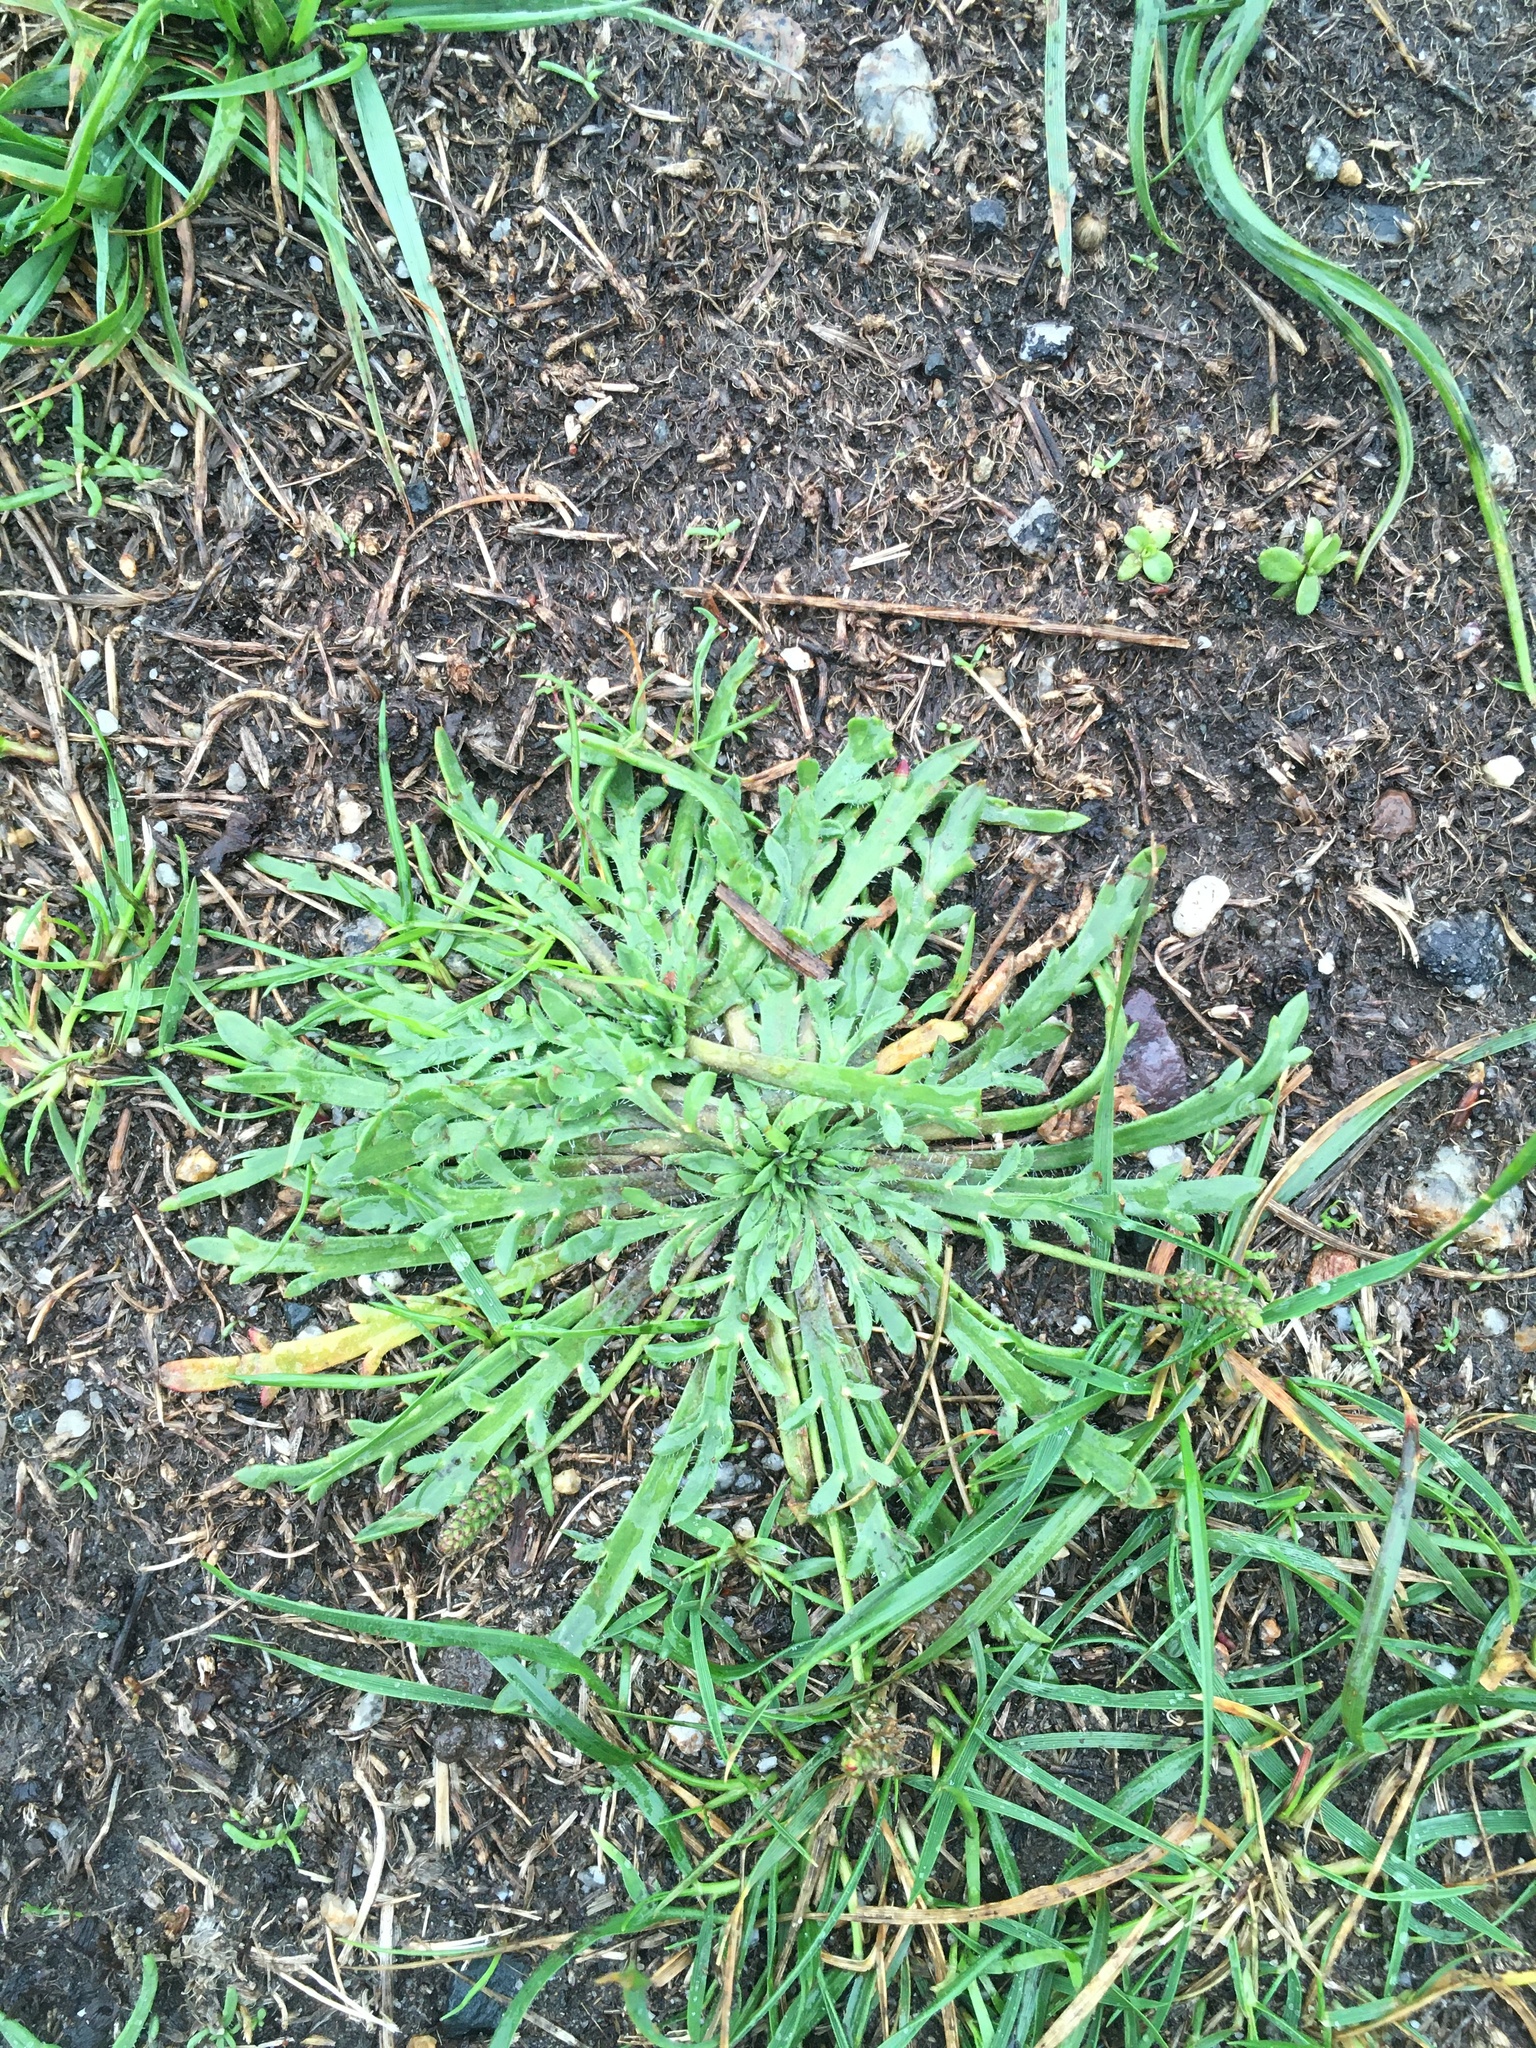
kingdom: Plantae
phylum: Tracheophyta
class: Magnoliopsida
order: Lamiales
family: Plantaginaceae
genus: Plantago
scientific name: Plantago coronopus
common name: Buck's-horn plantain
